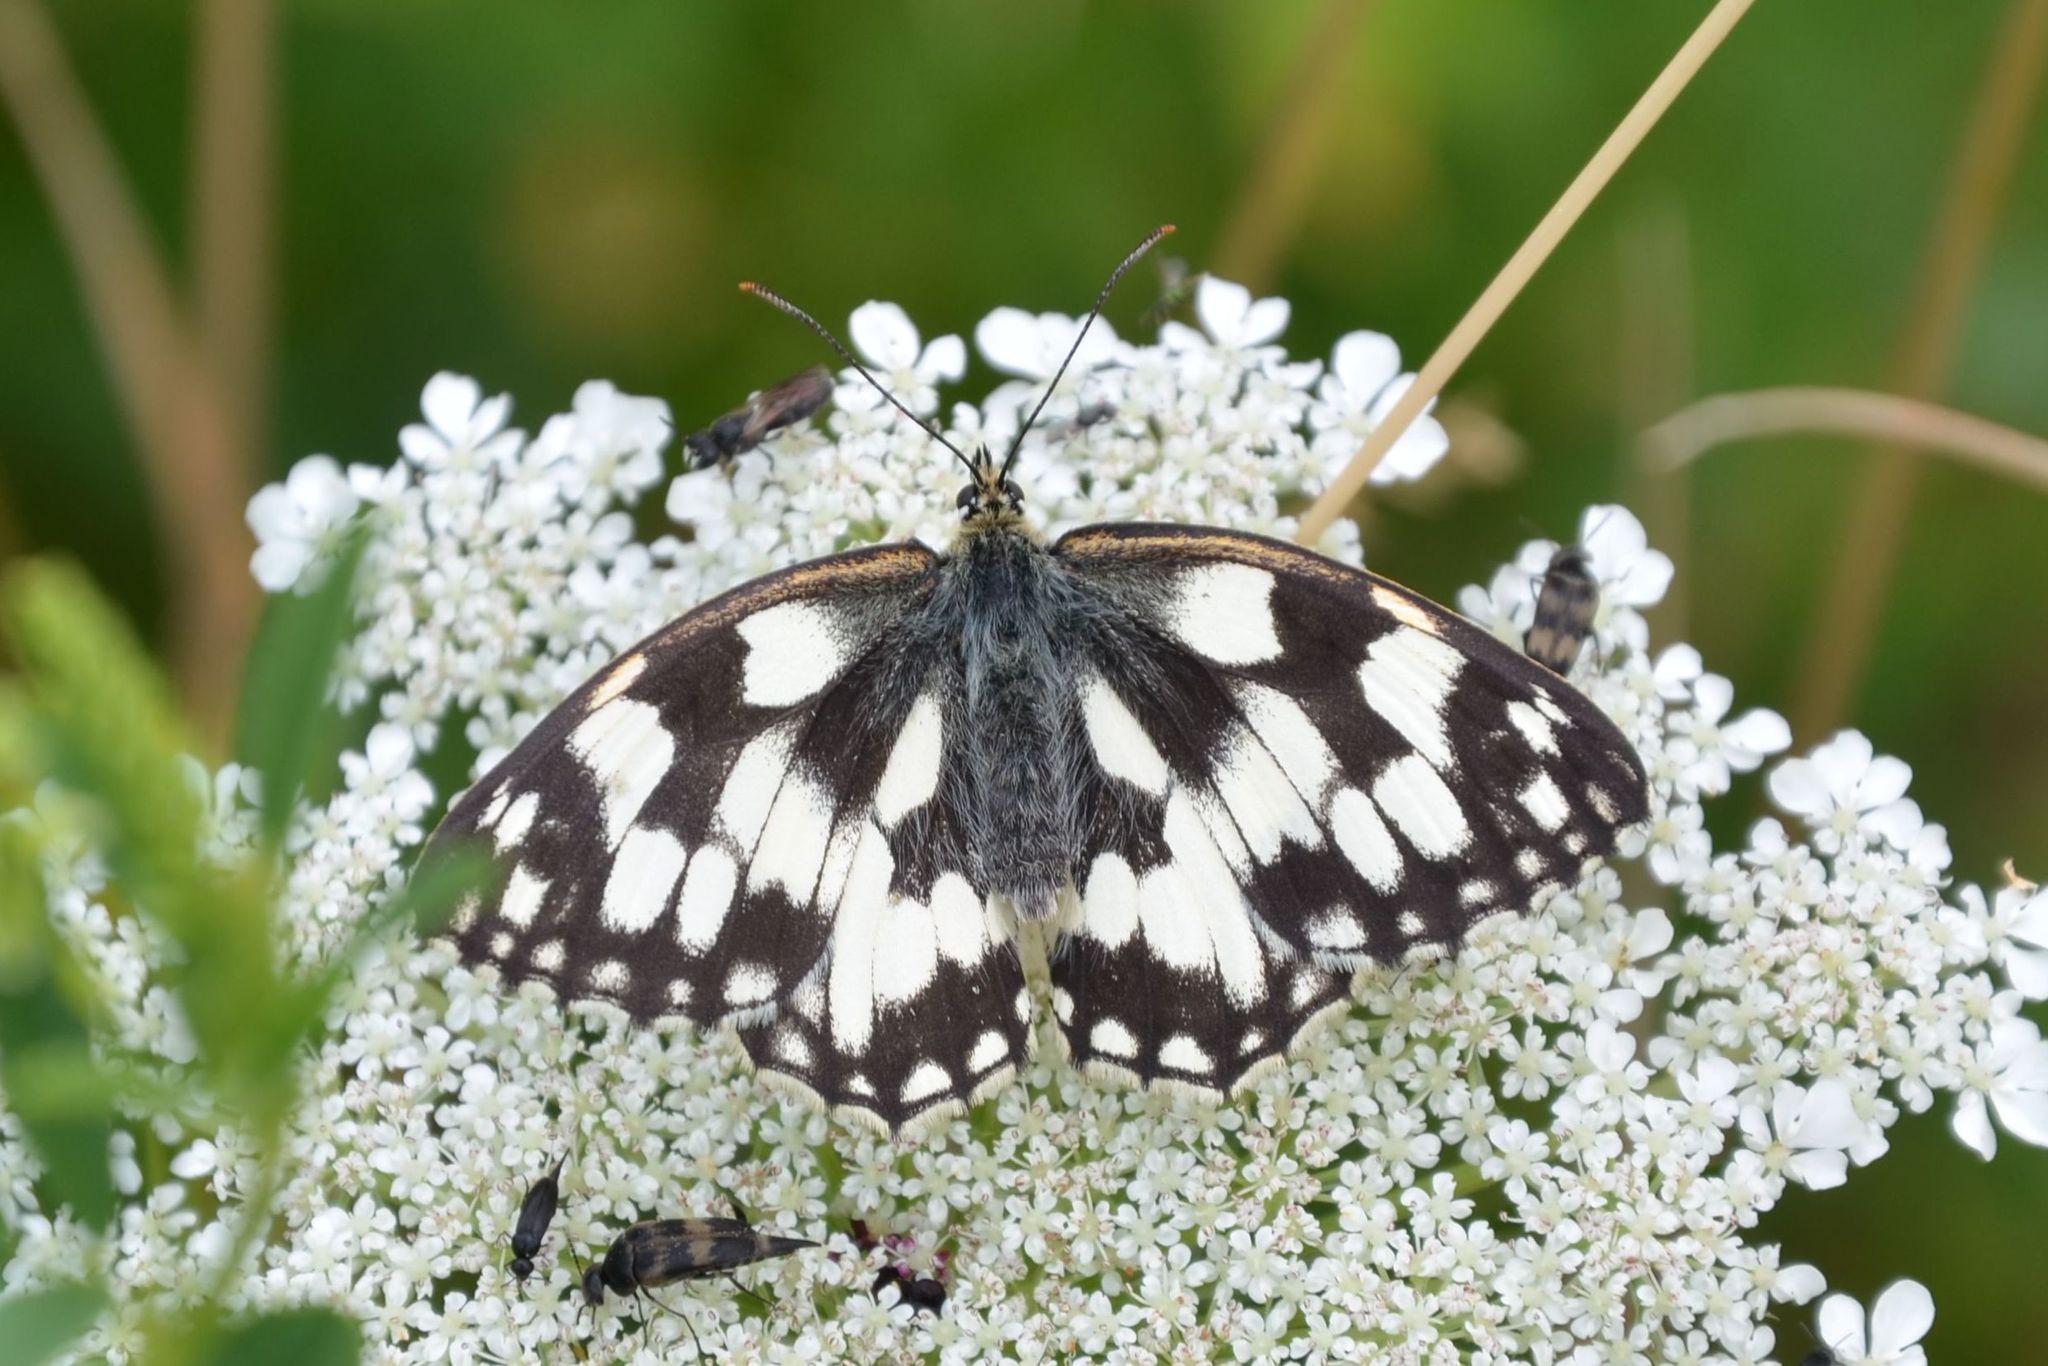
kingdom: Animalia
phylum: Arthropoda
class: Insecta
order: Lepidoptera
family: Nymphalidae
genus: Melanargia
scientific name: Melanargia galathea
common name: Marbled white
